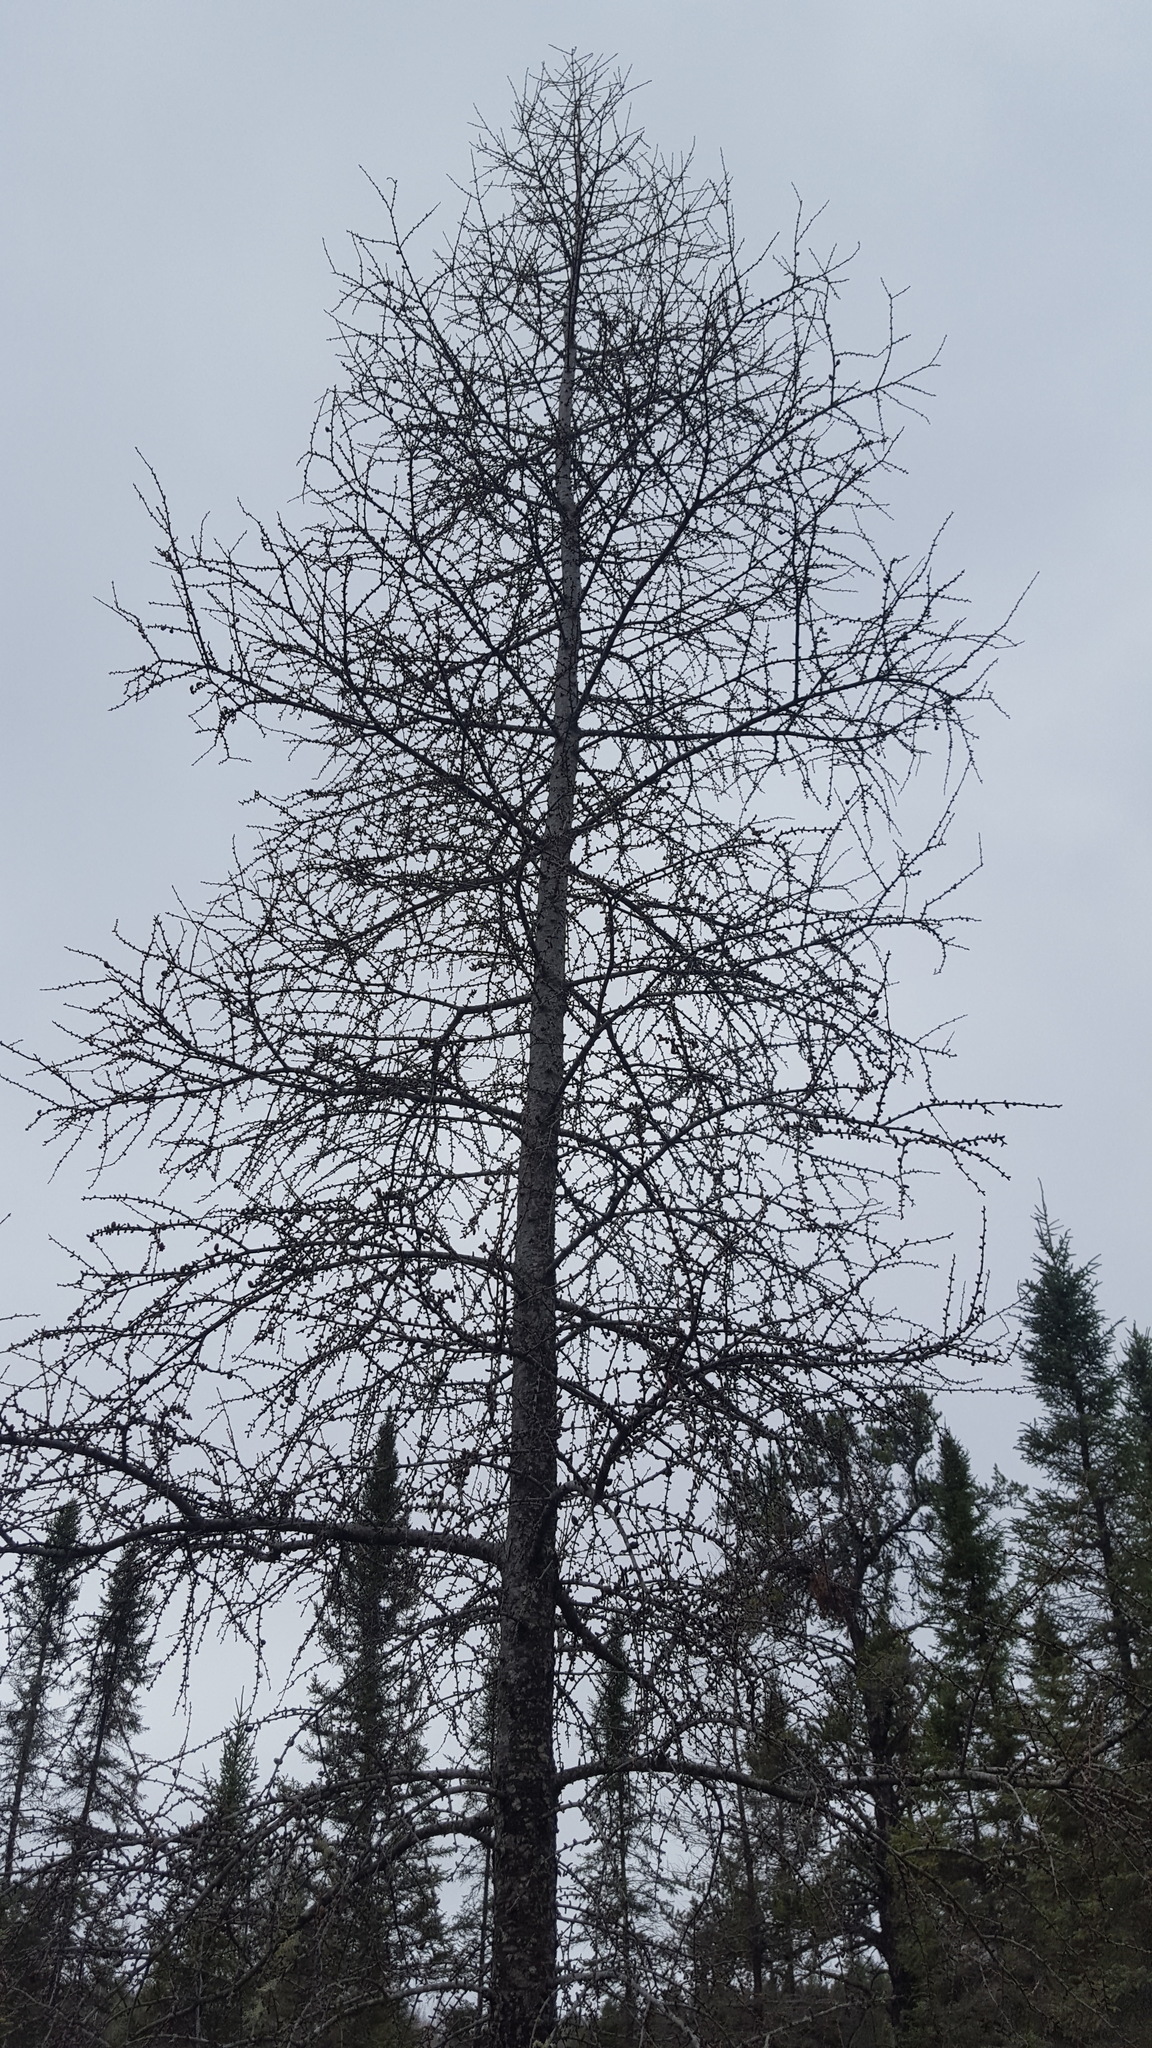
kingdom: Plantae
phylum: Tracheophyta
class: Pinopsida
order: Pinales
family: Pinaceae
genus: Larix
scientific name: Larix laricina
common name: American larch
